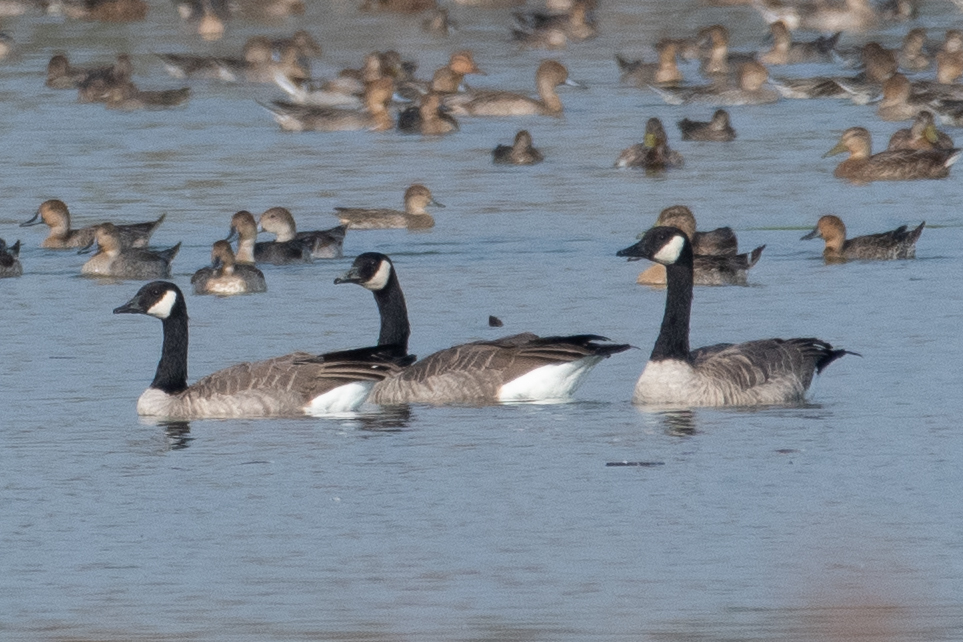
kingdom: Animalia
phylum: Chordata
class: Aves
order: Anseriformes
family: Anatidae
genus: Branta
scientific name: Branta canadensis
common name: Canada goose
